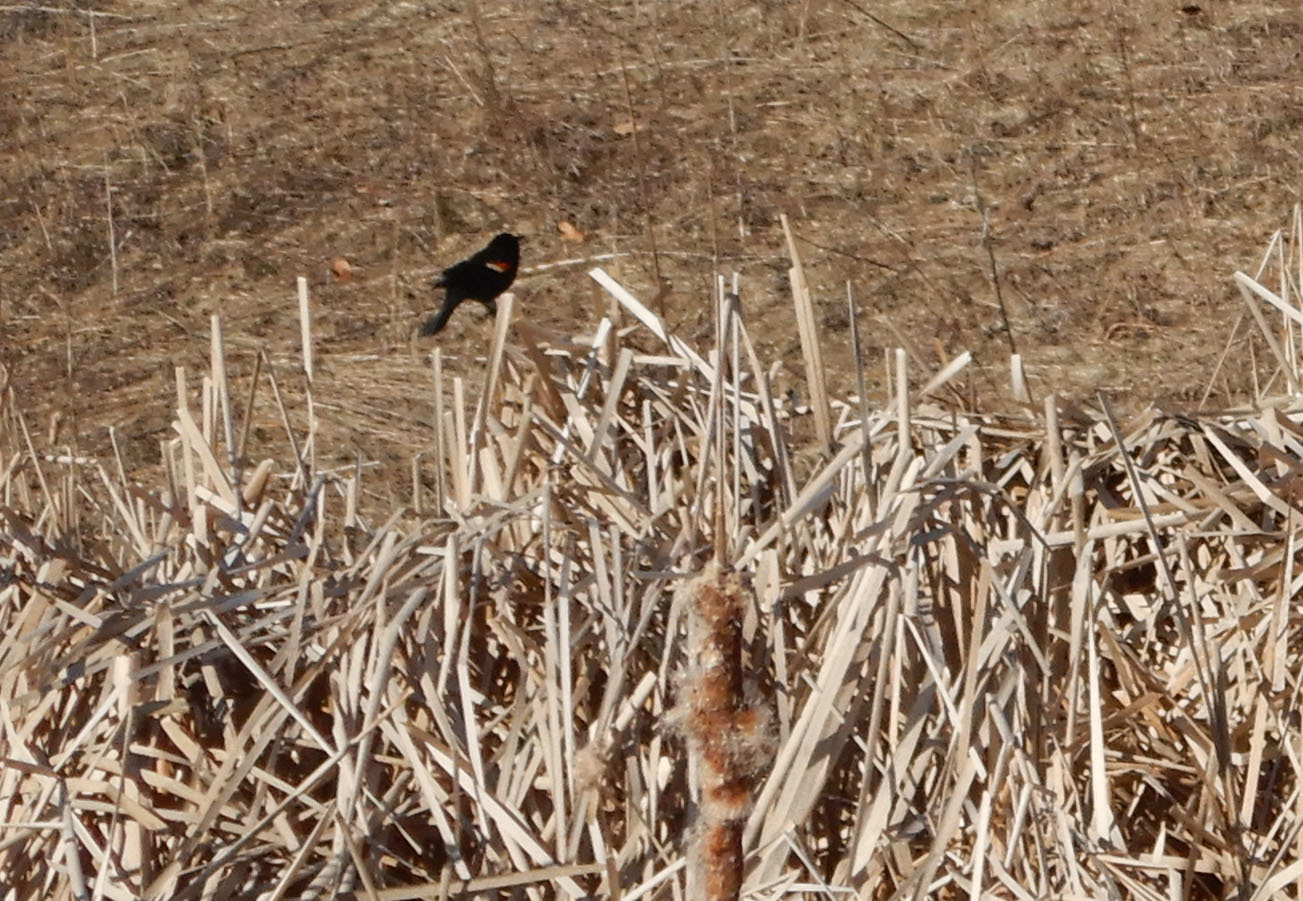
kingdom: Animalia
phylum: Chordata
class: Aves
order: Passeriformes
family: Icteridae
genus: Agelaius
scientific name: Agelaius phoeniceus
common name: Red-winged blackbird
